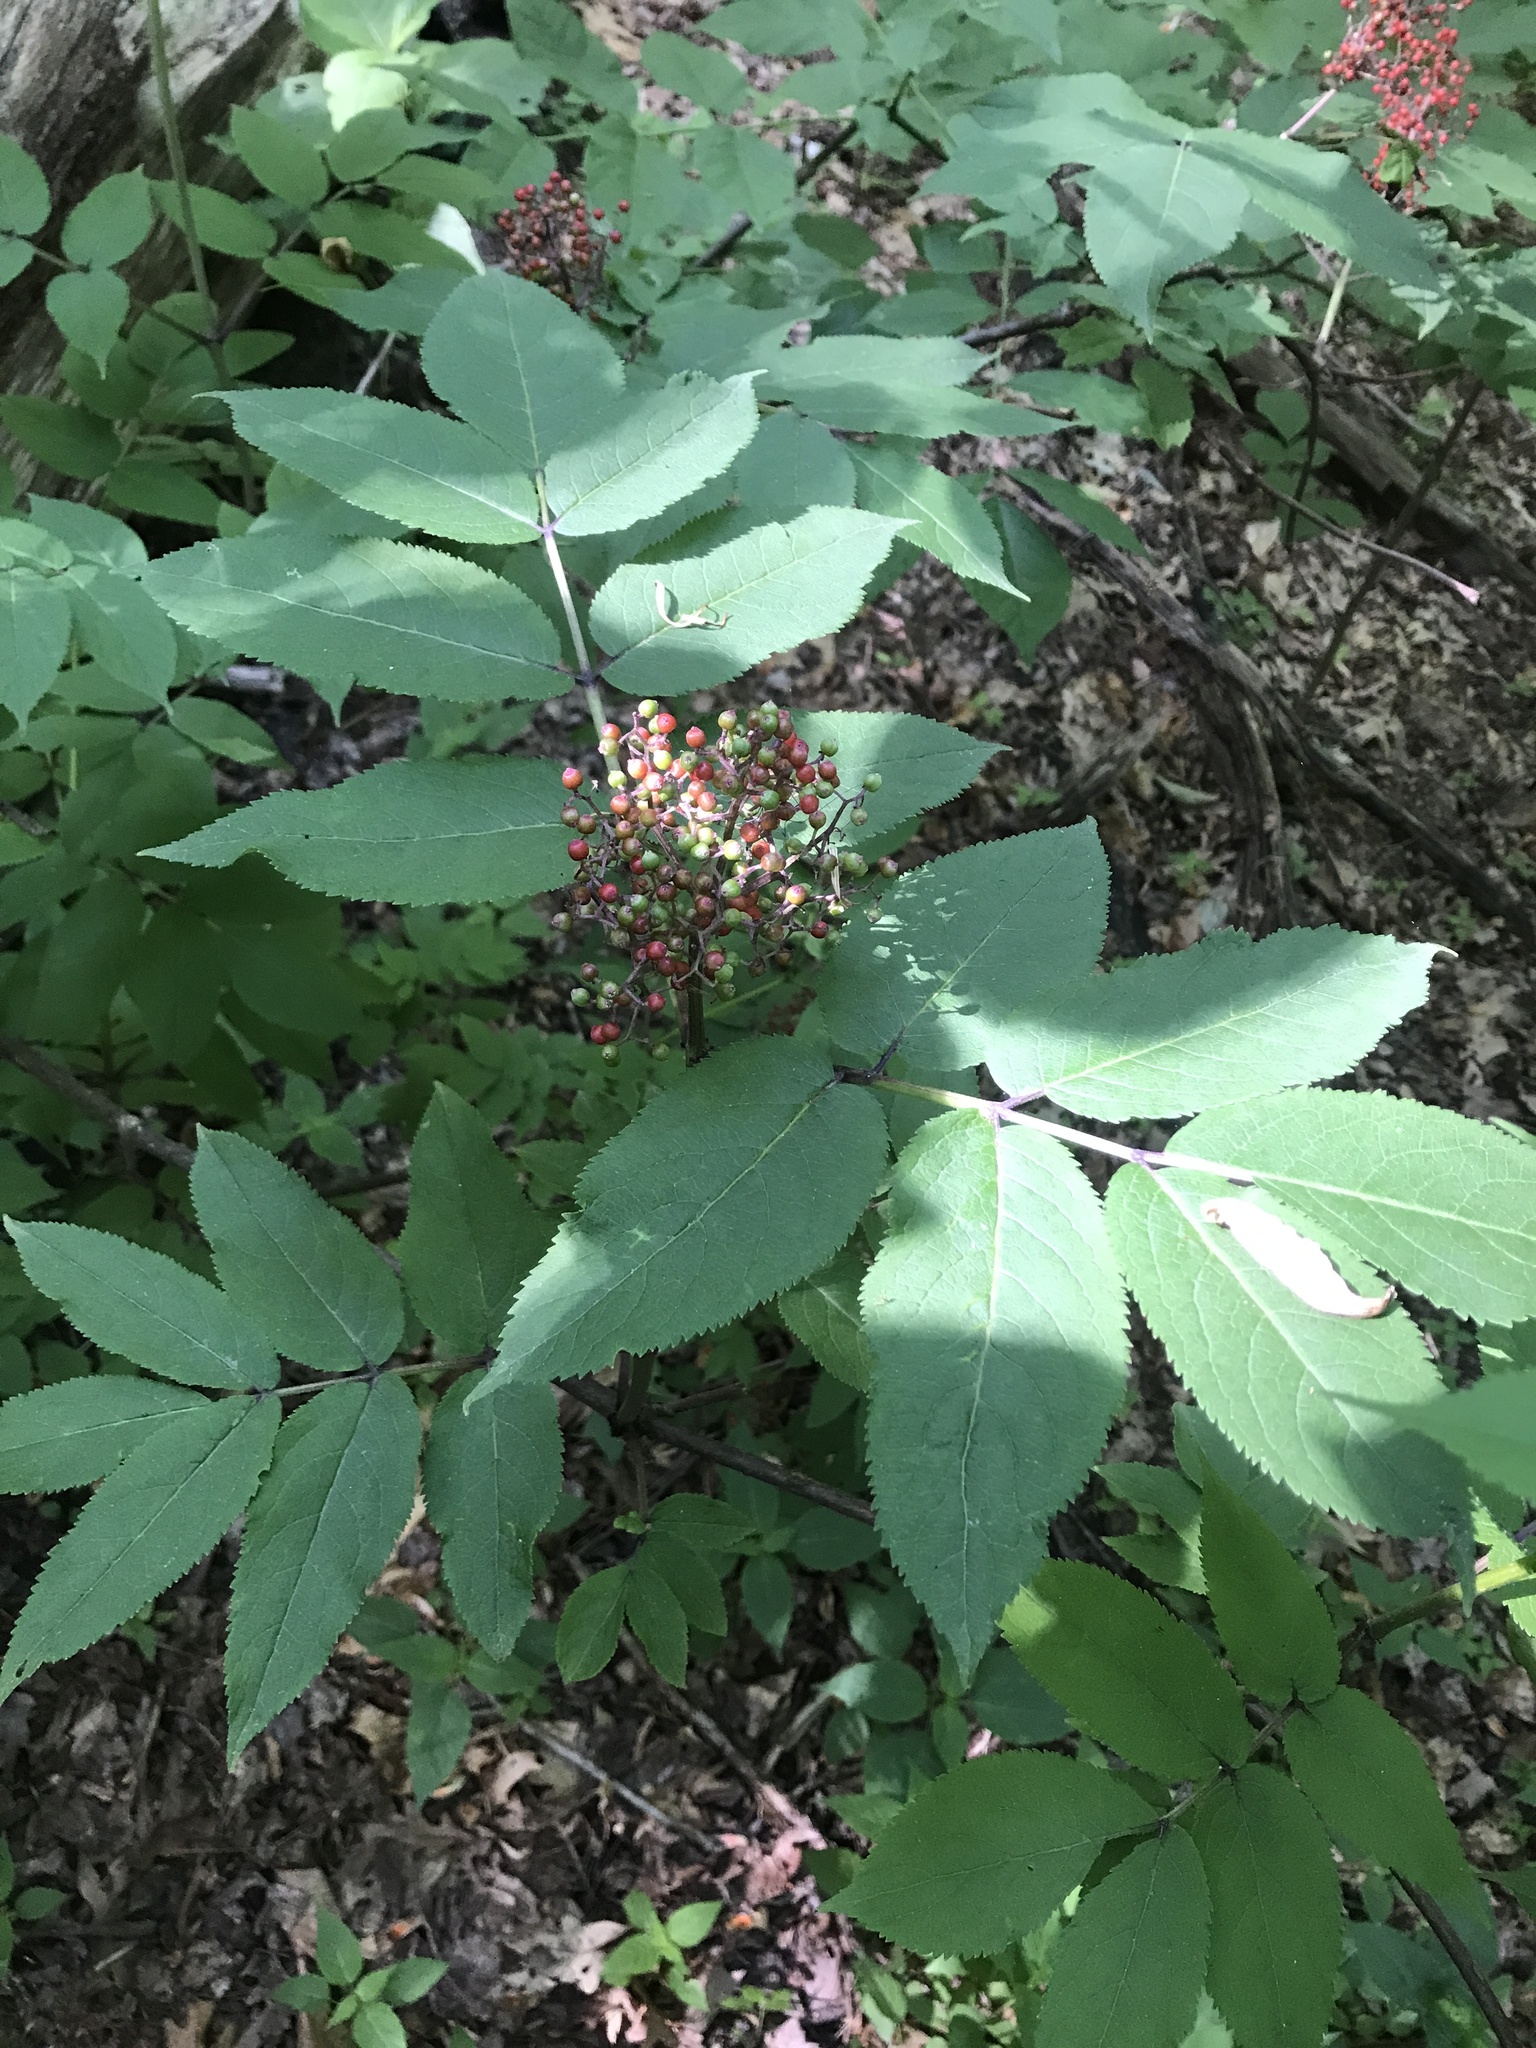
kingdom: Plantae
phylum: Tracheophyta
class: Magnoliopsida
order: Dipsacales
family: Viburnaceae
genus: Sambucus
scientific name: Sambucus racemosa
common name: Red-berried elder
